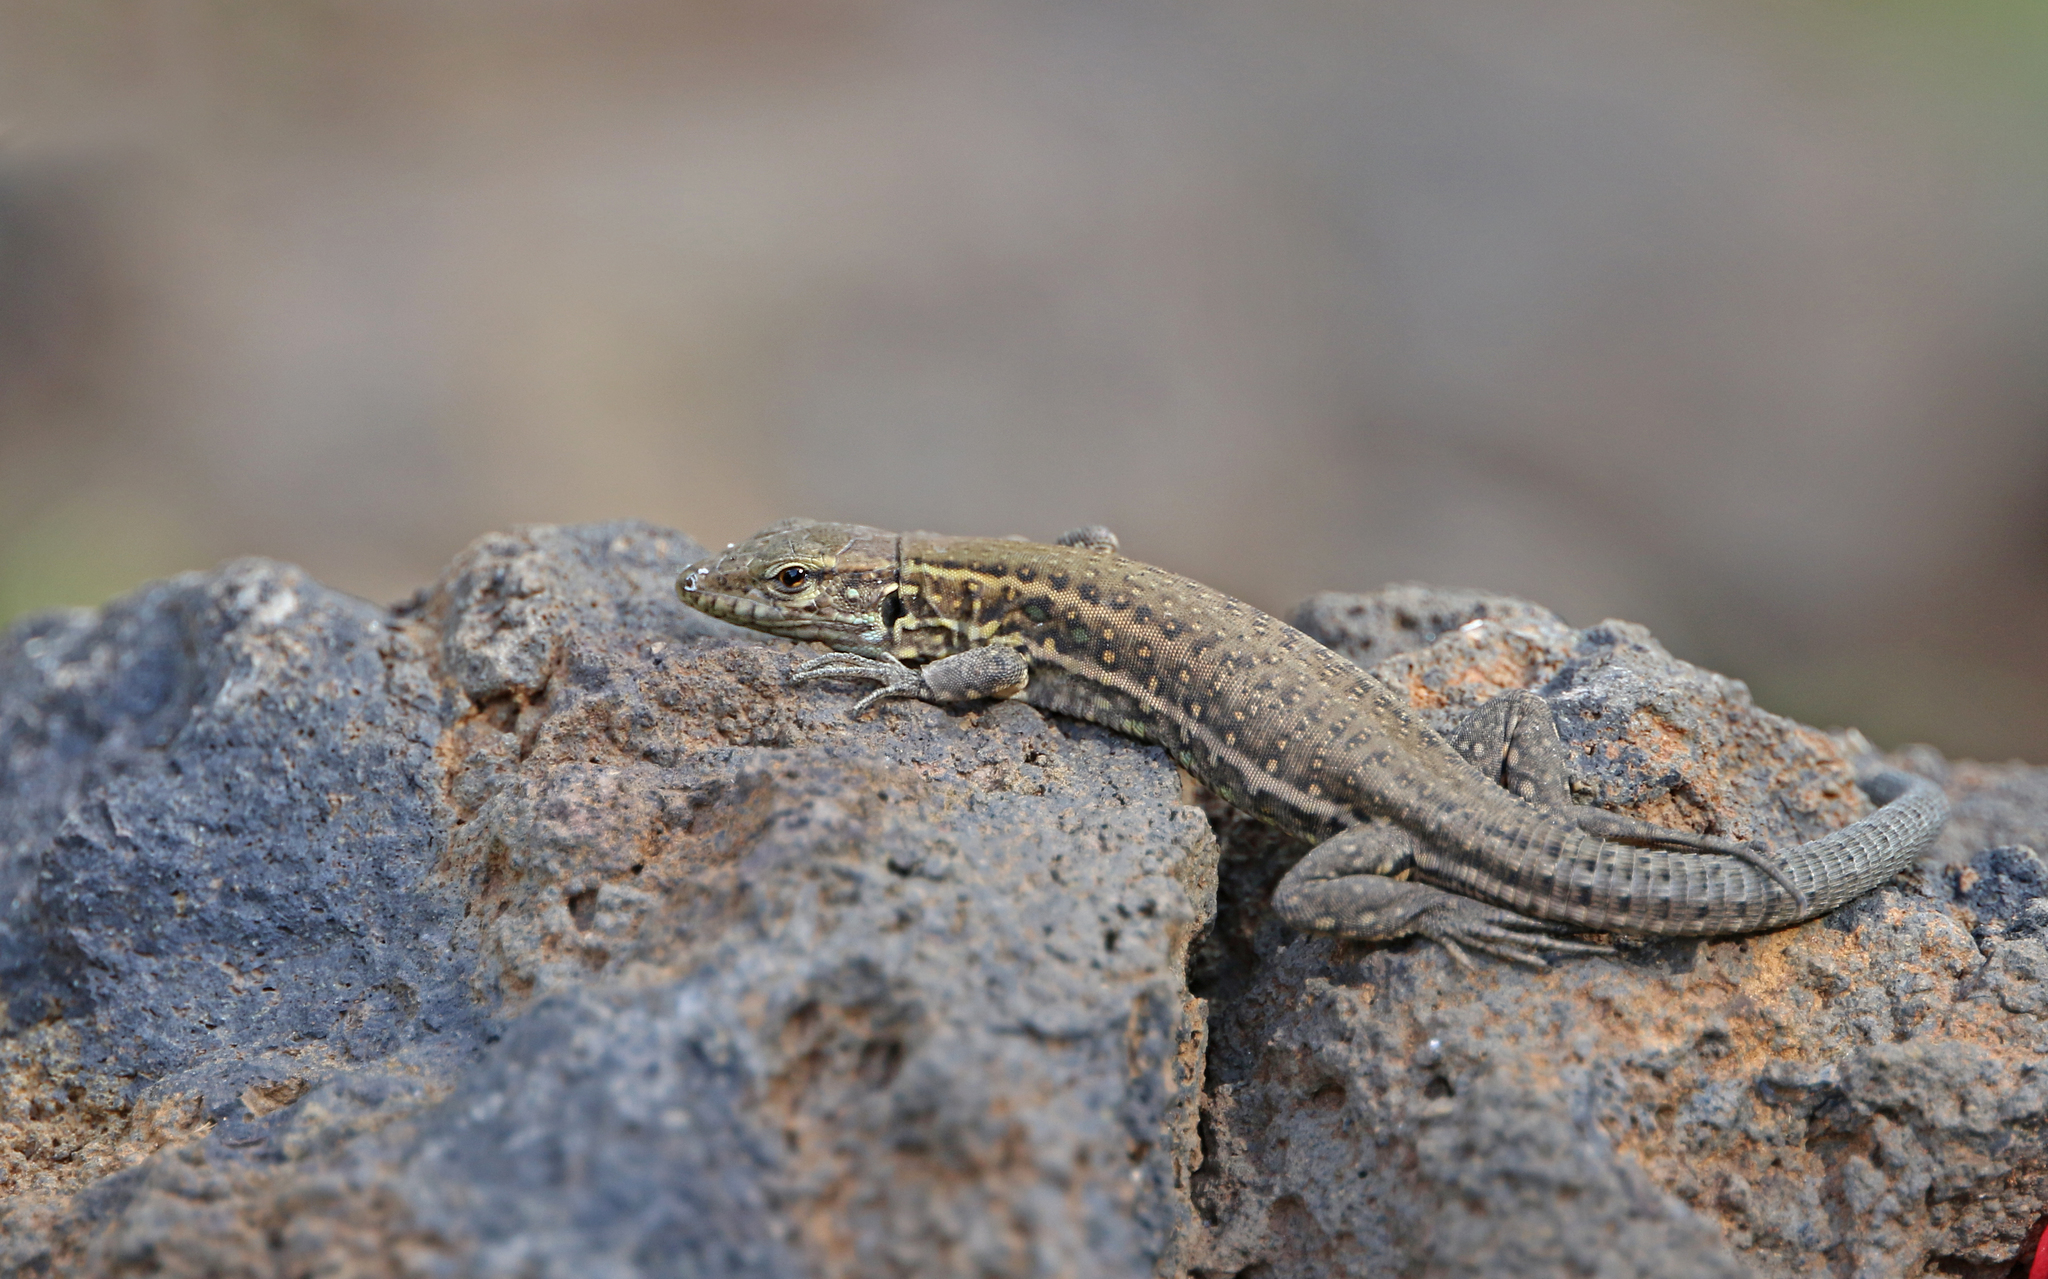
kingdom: Animalia
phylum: Chordata
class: Squamata
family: Lacertidae
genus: Gallotia
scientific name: Gallotia galloti
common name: Gallot's lizard
